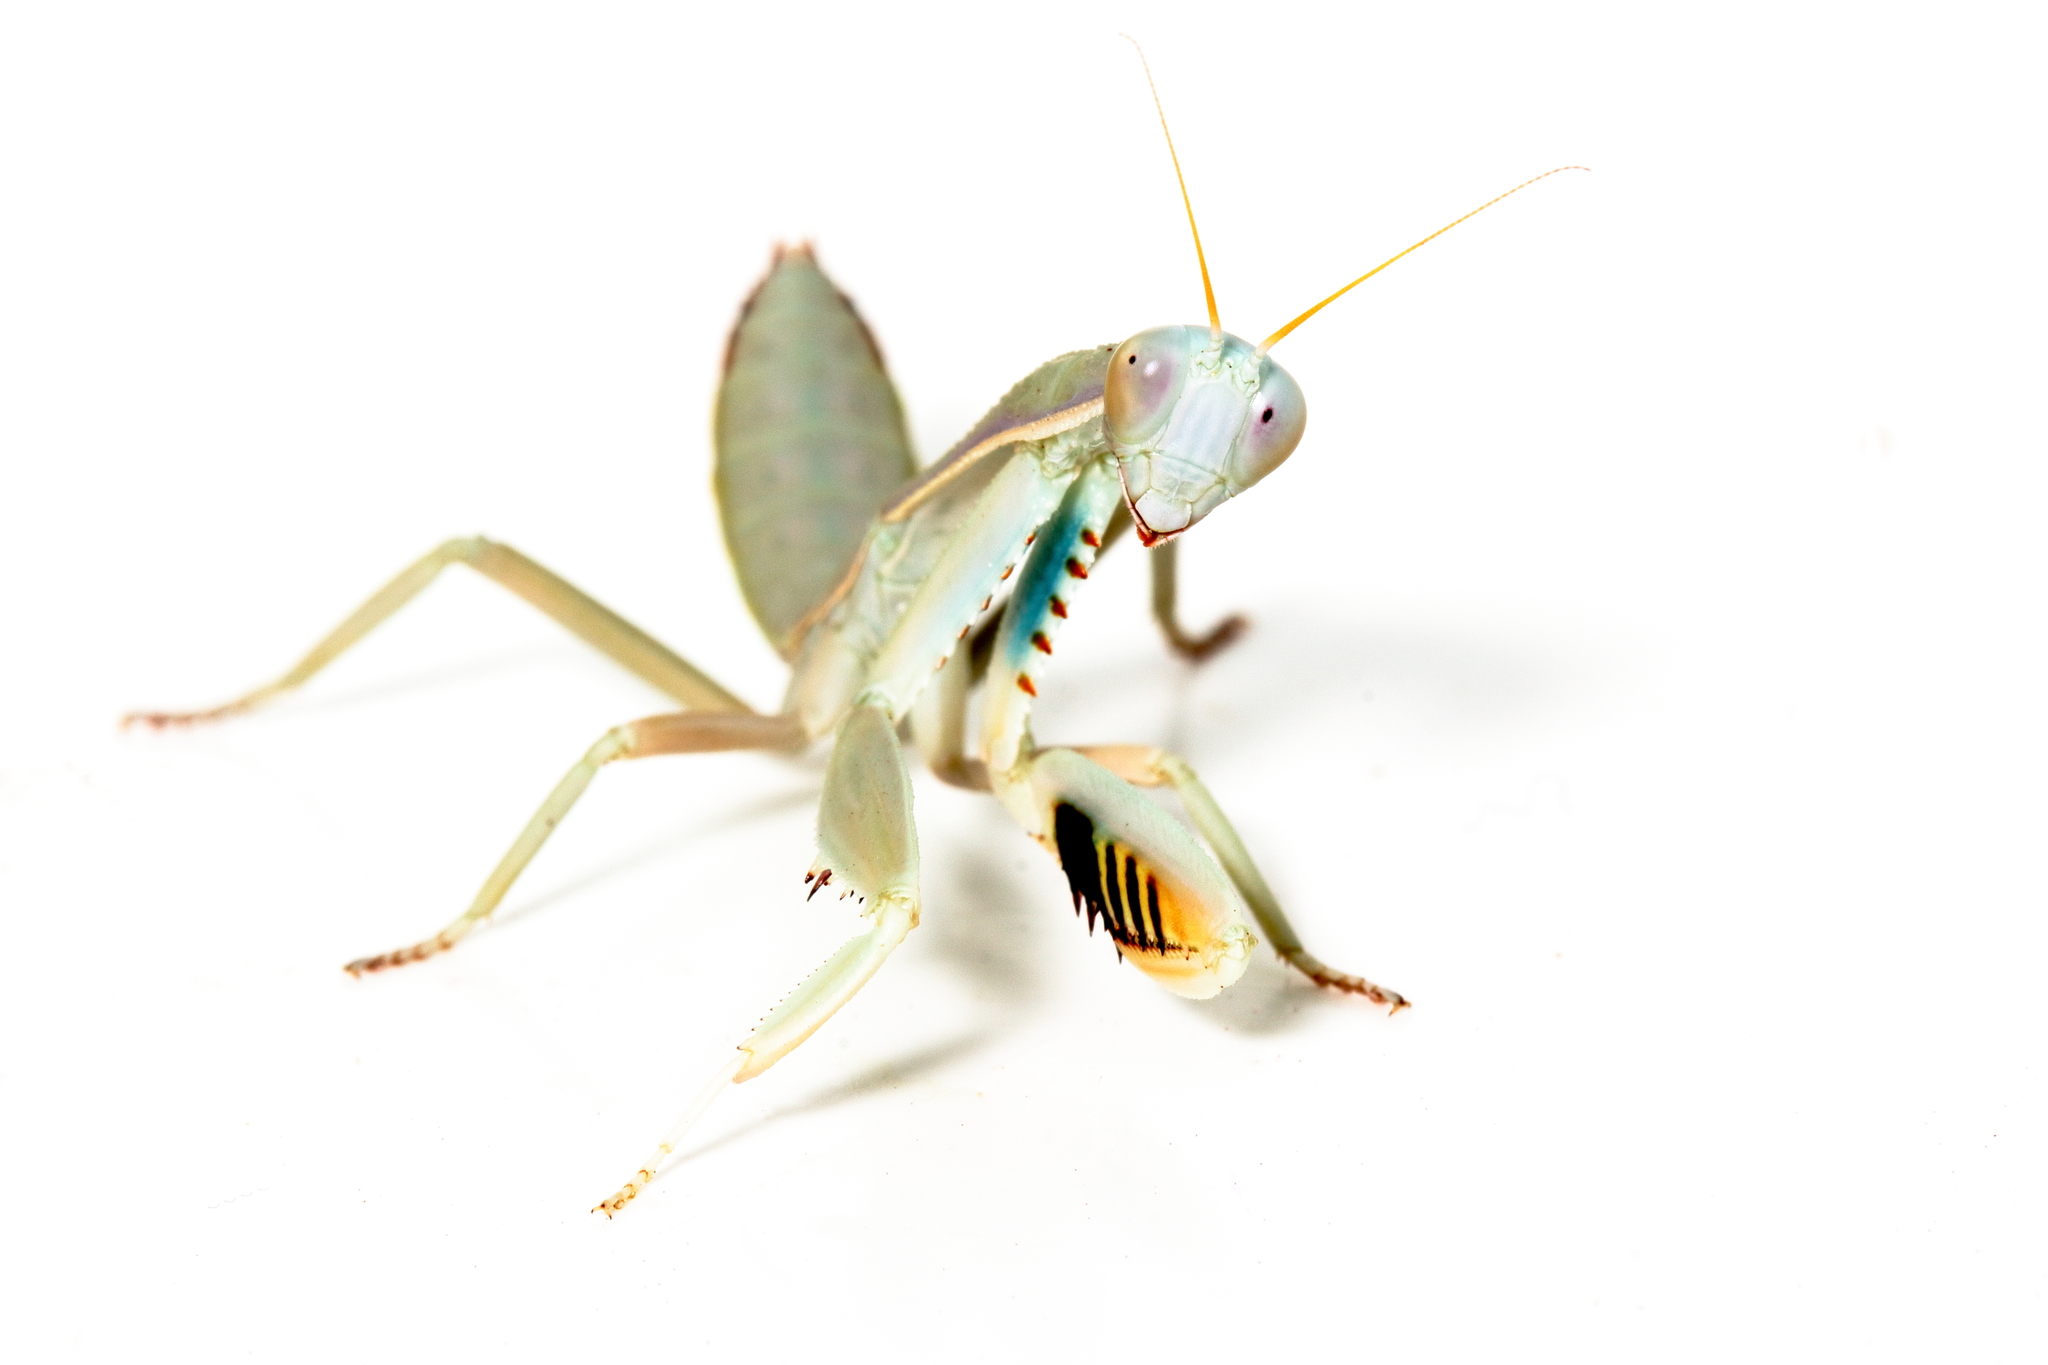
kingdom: Animalia
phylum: Arthropoda
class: Insecta
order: Mantodea
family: Mantidae
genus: Trachymantis
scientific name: Trachymantis obesa
